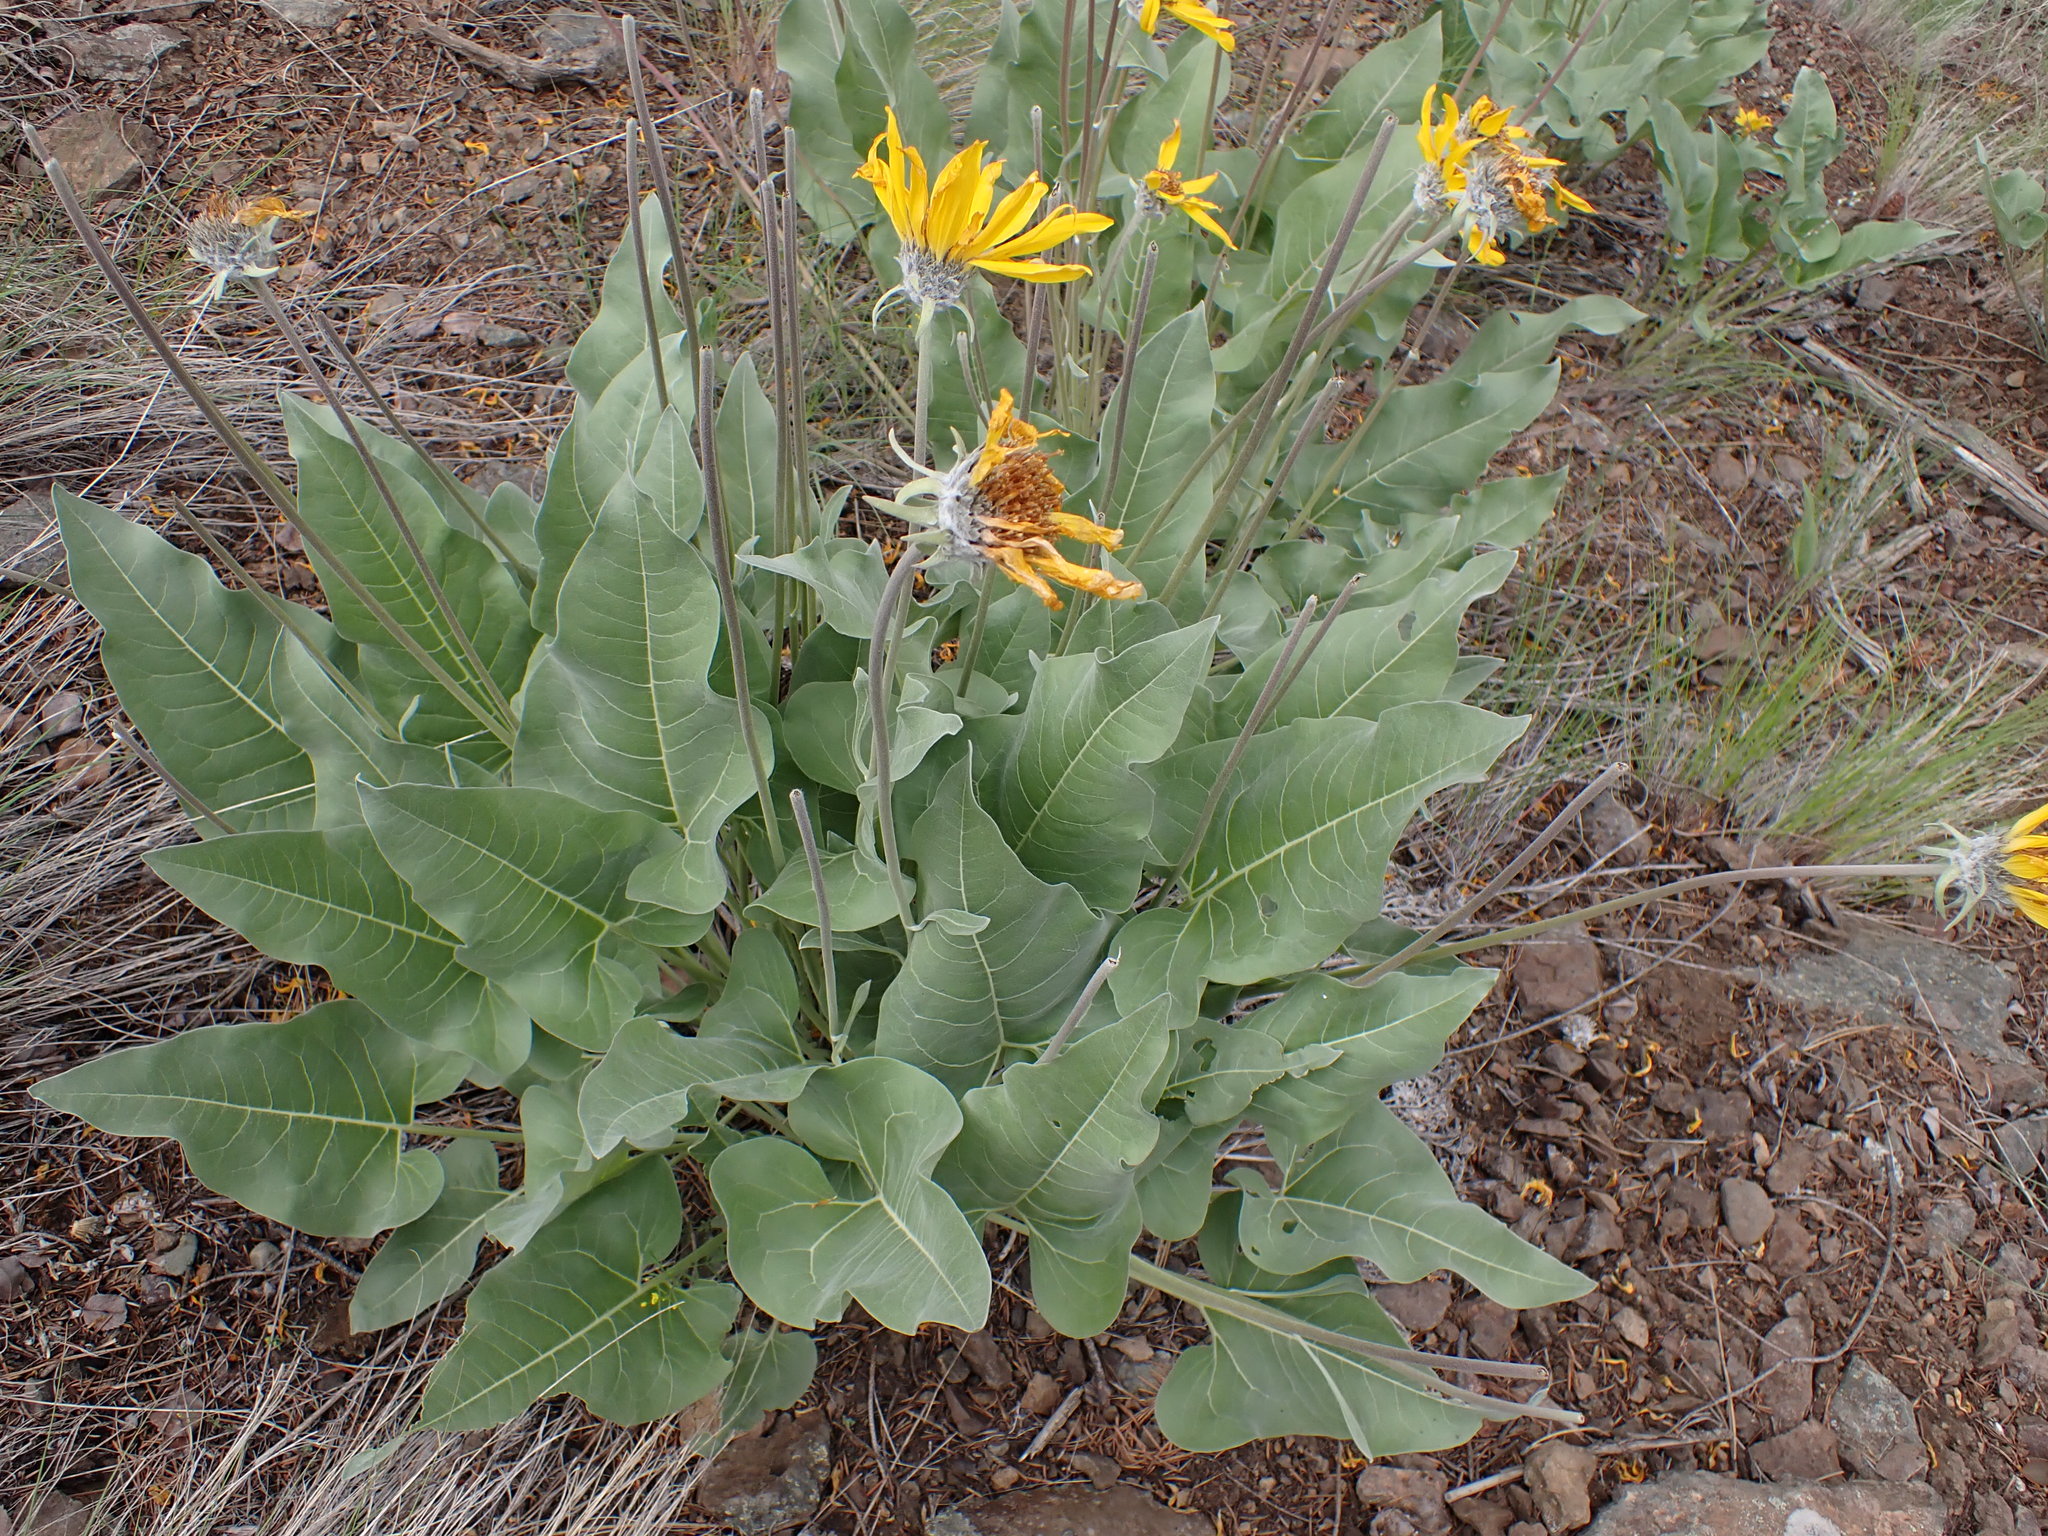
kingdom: Plantae
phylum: Tracheophyta
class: Magnoliopsida
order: Asterales
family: Asteraceae
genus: Wyethia
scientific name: Wyethia sagittata
